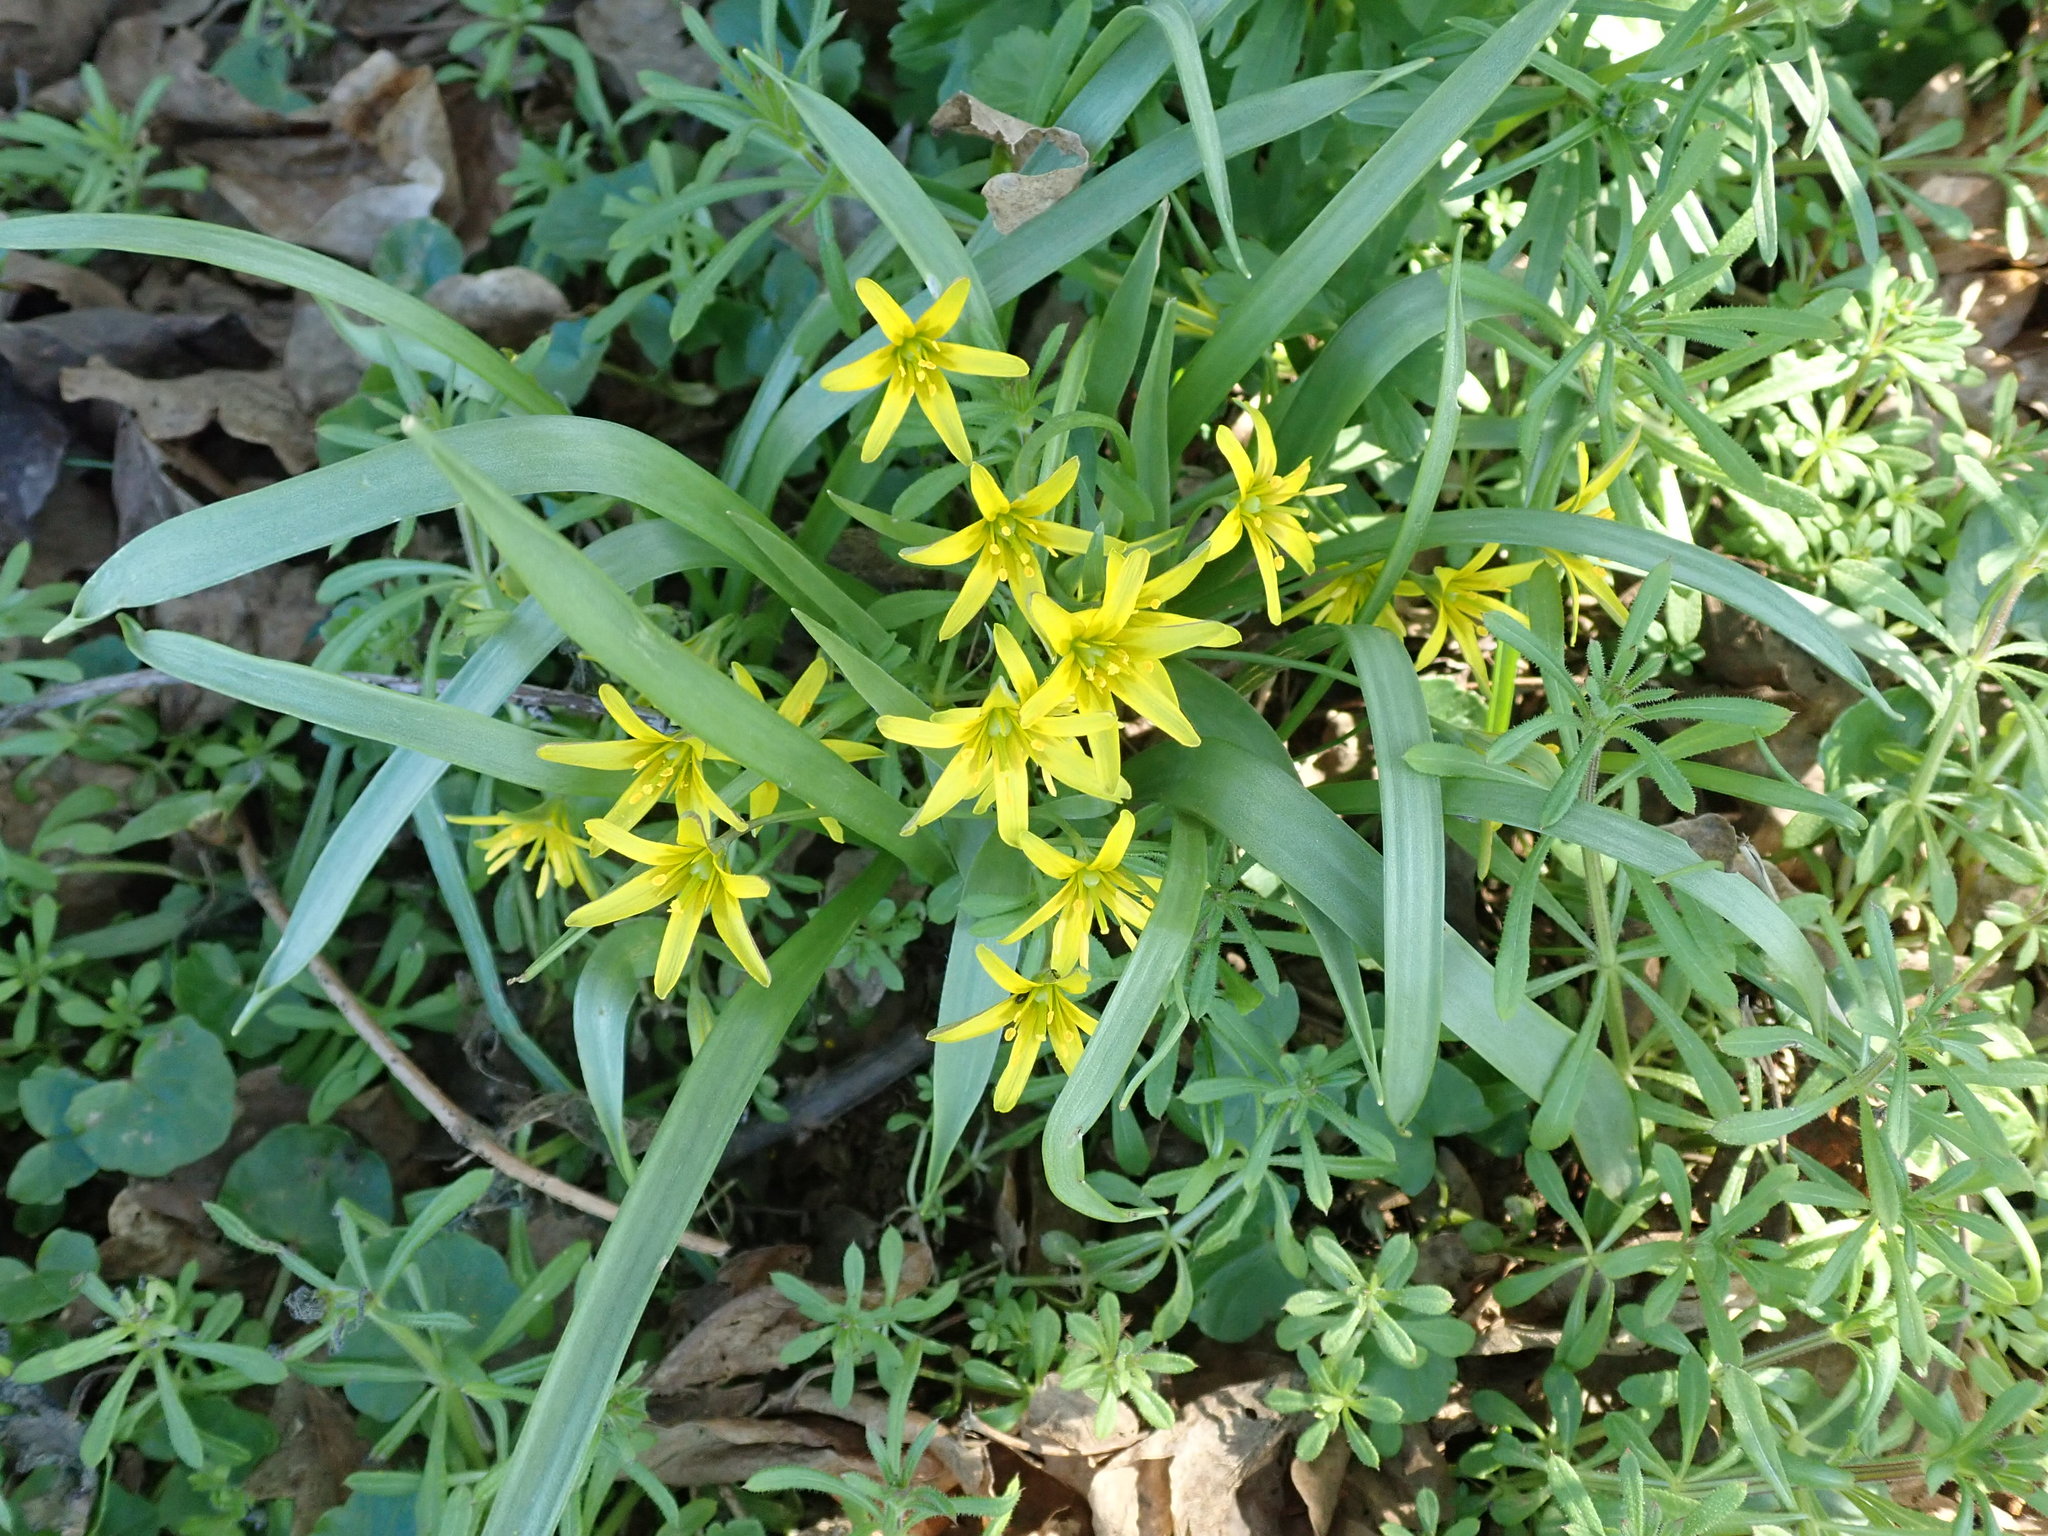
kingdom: Plantae
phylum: Tracheophyta
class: Liliopsida
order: Liliales
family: Liliaceae
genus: Gagea
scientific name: Gagea lutea
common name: Yellow star-of-bethlehem
